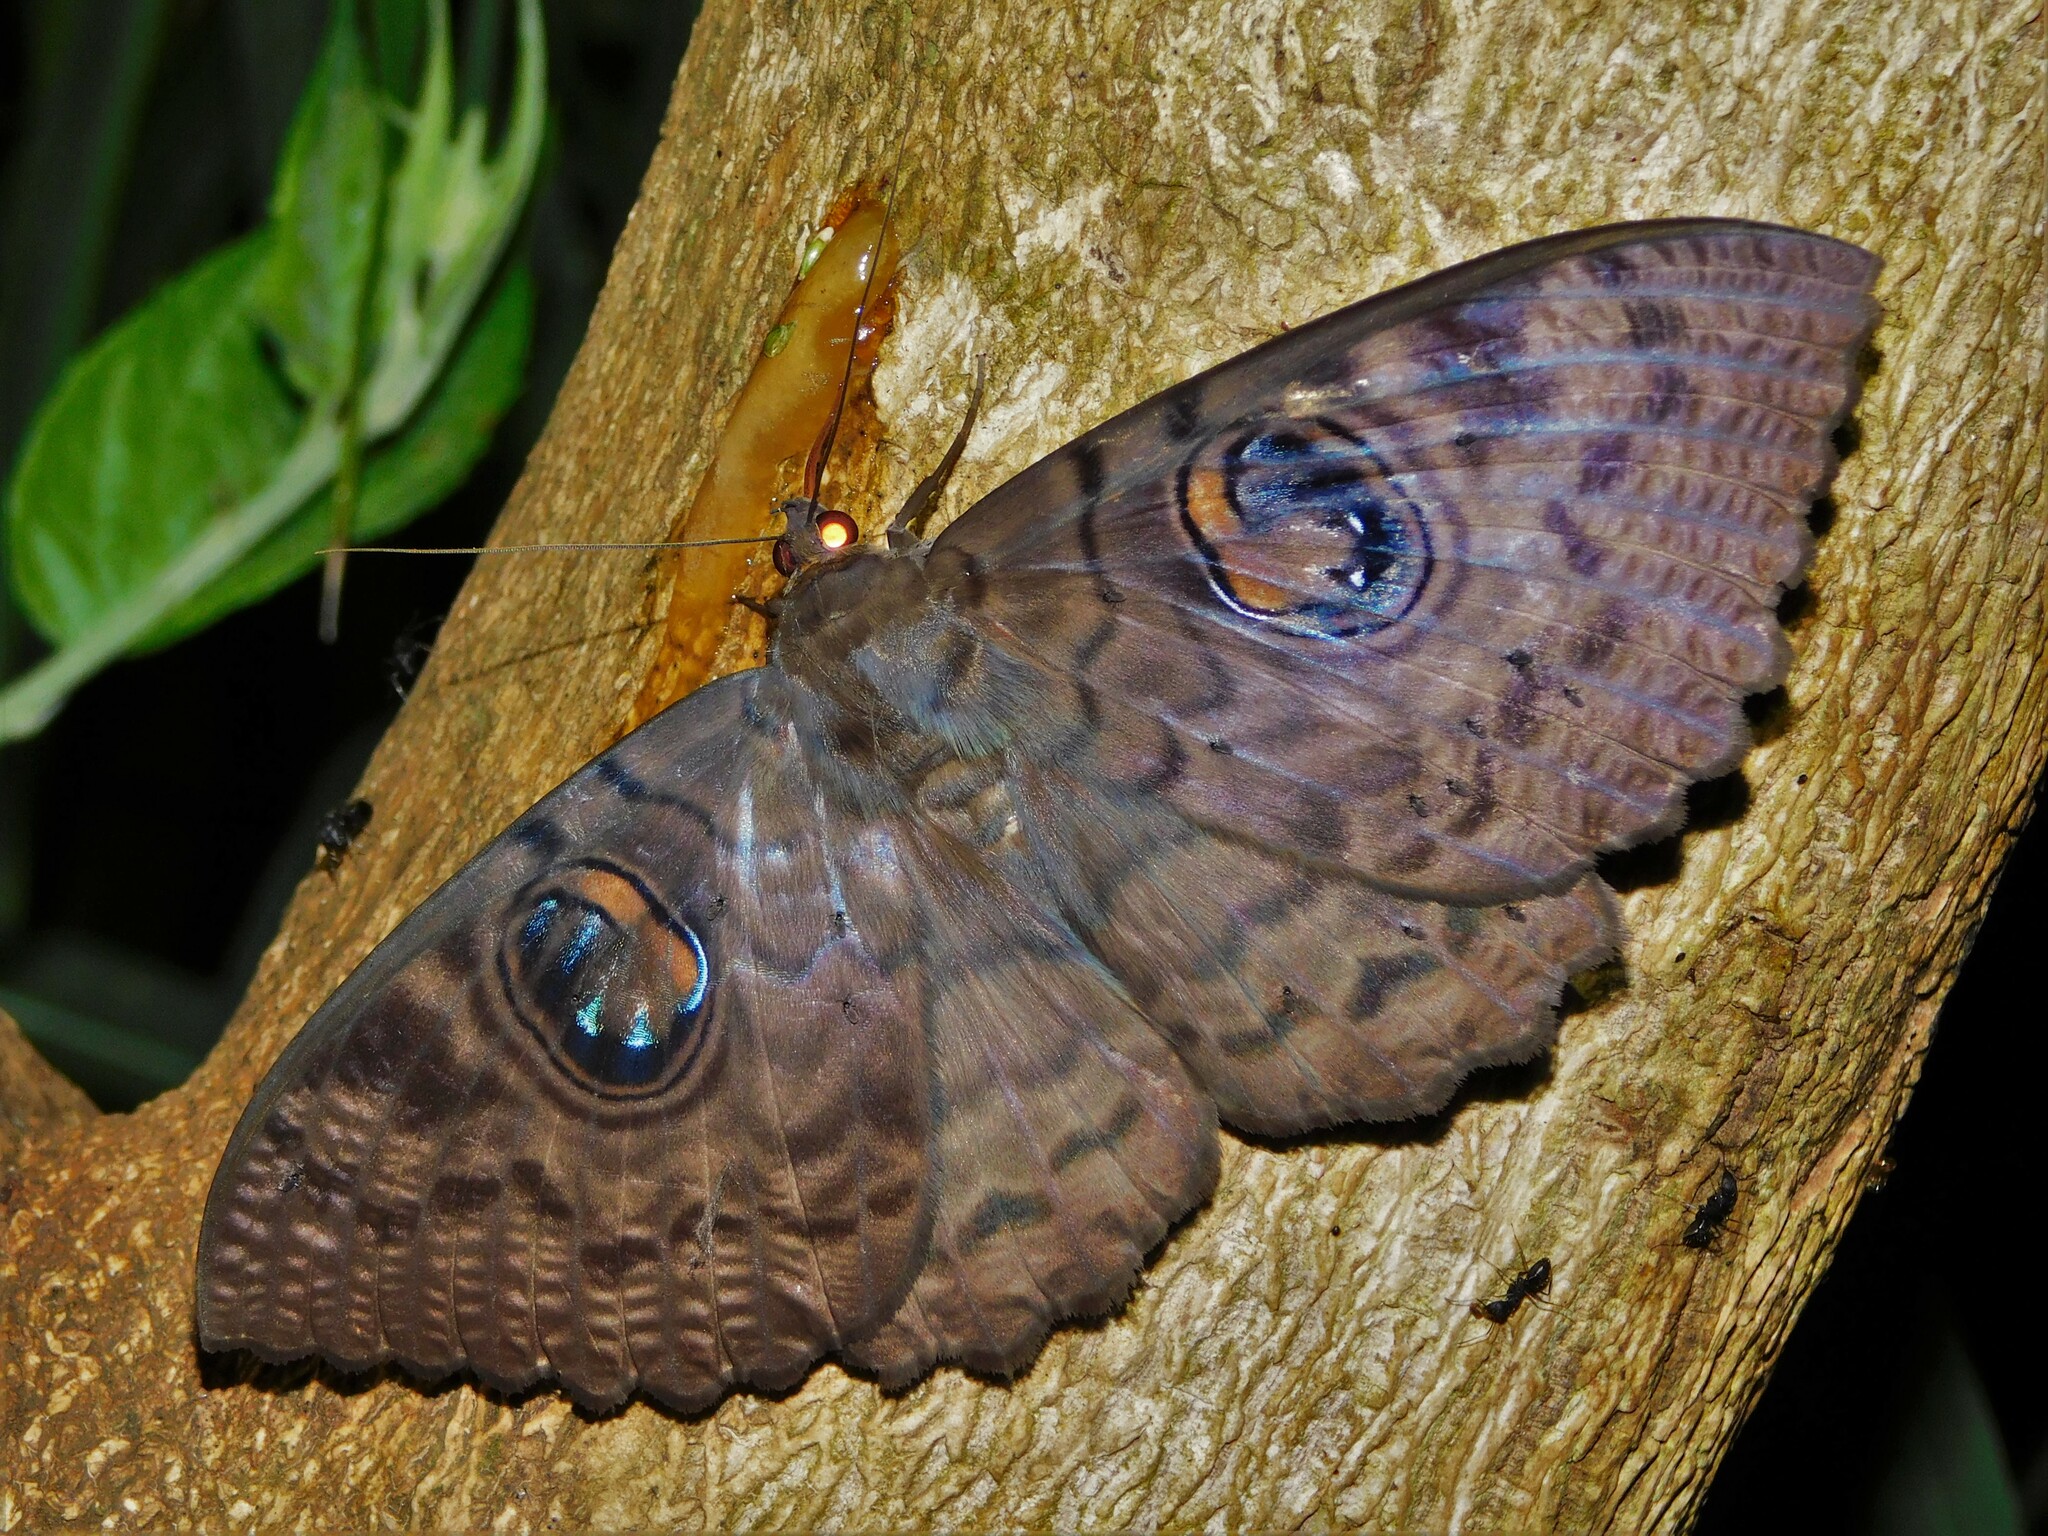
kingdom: Animalia
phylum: Arthropoda
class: Insecta
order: Lepidoptera
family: Erebidae
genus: Erebus
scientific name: Erebus walkeri
